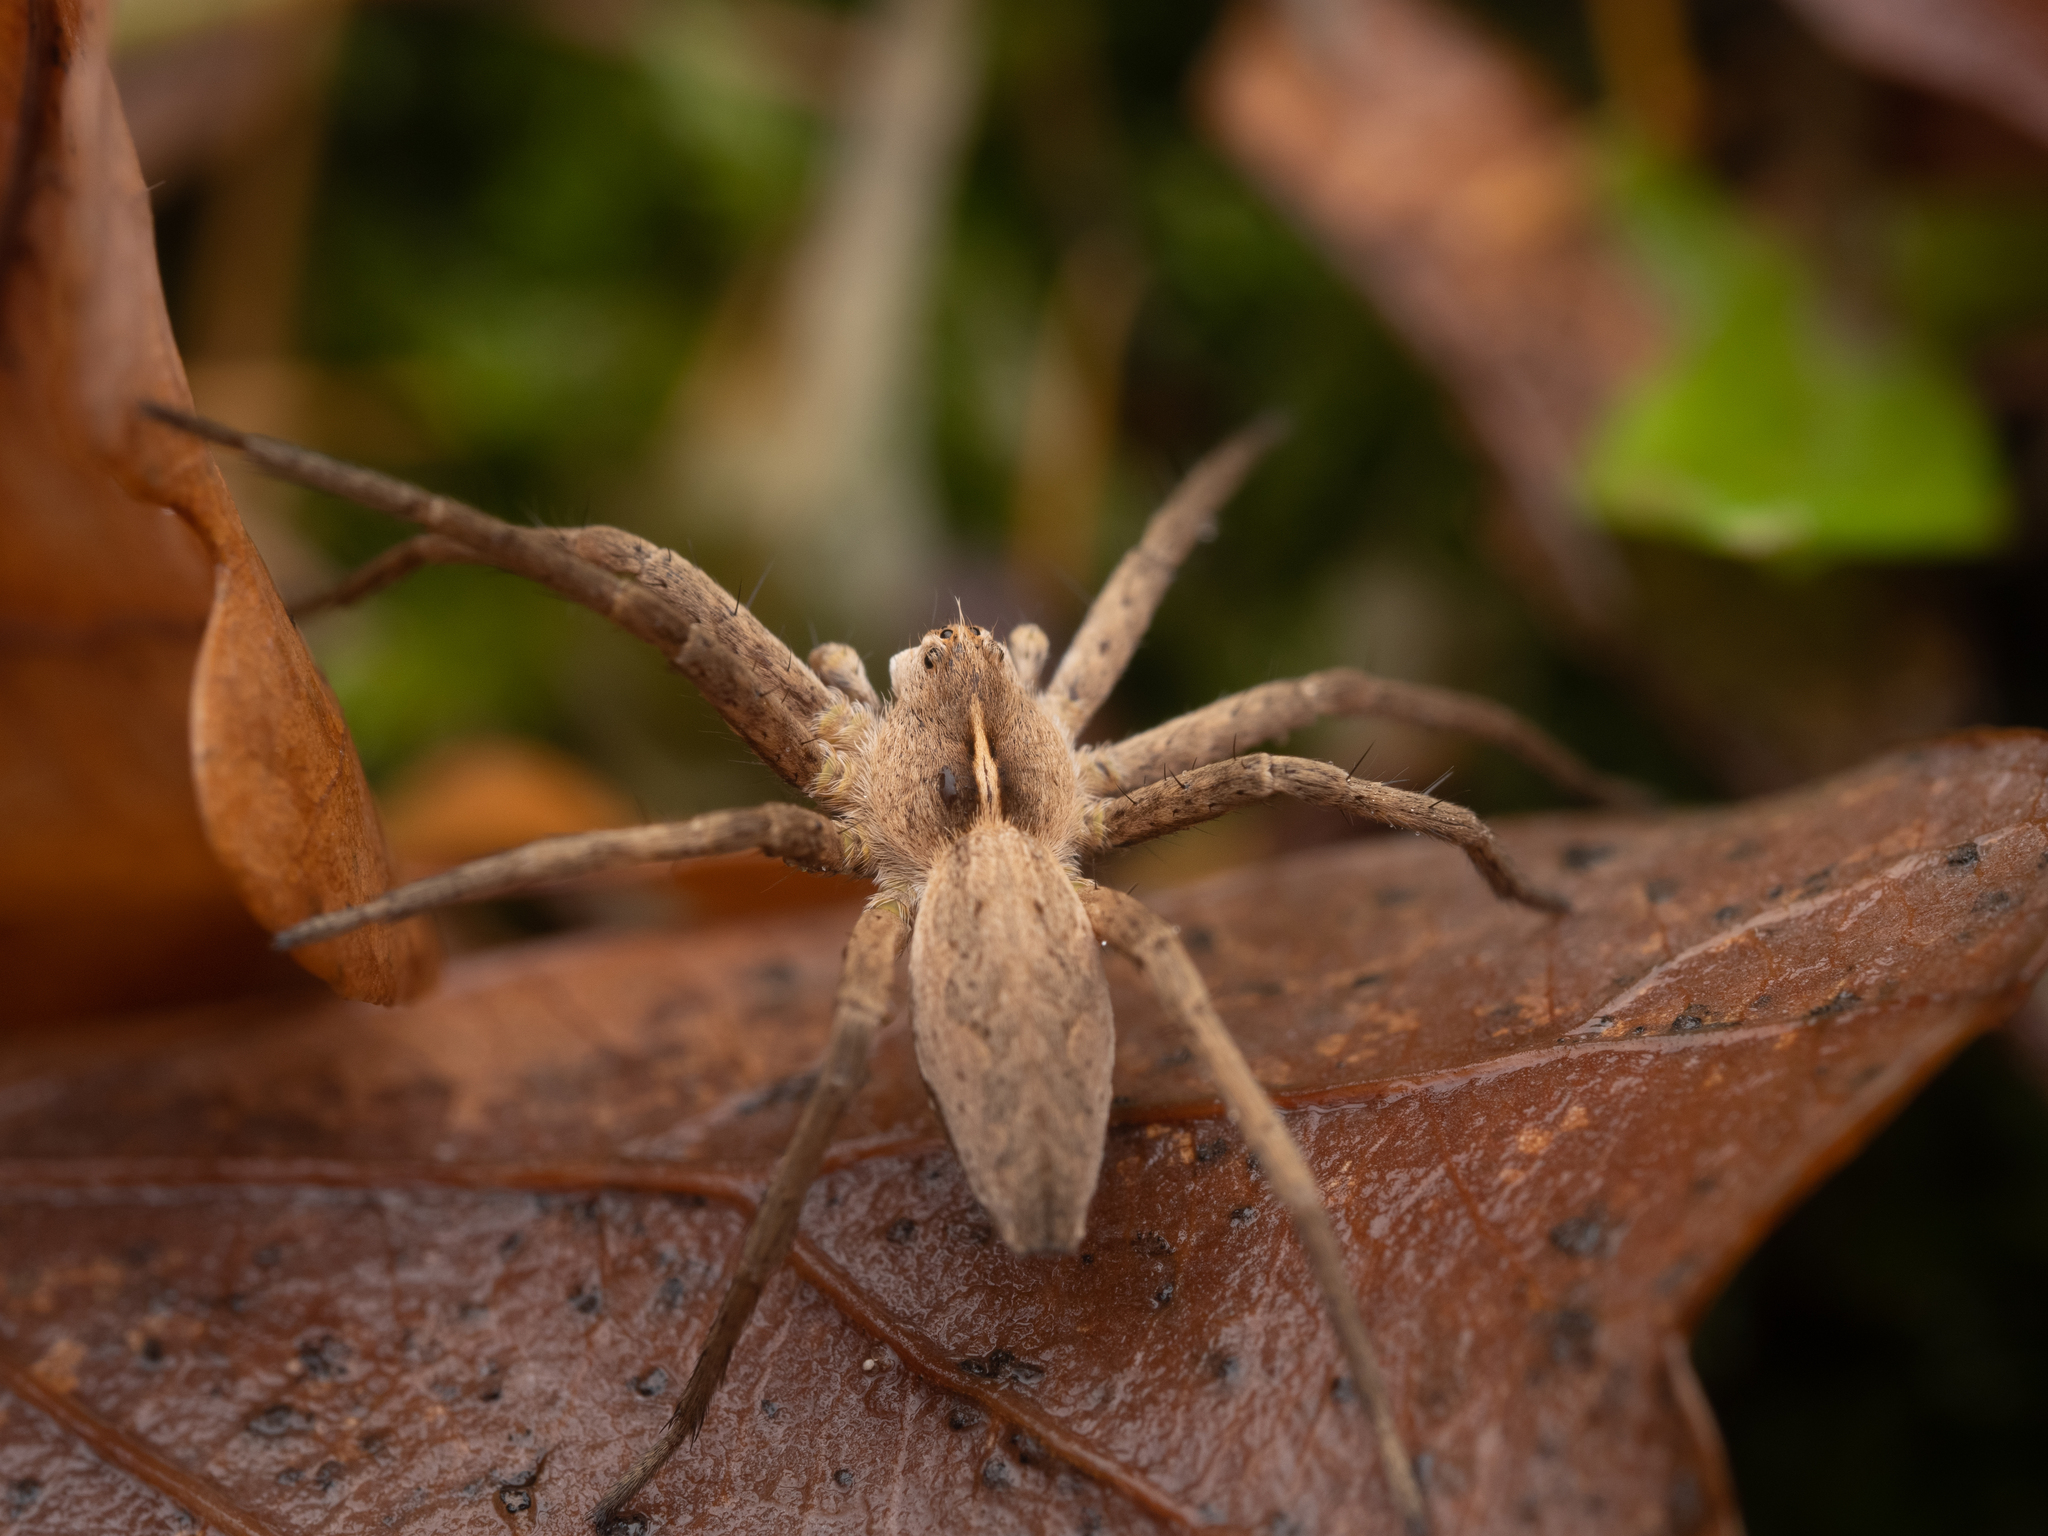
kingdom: Animalia
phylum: Arthropoda
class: Arachnida
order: Araneae
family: Pisauridae
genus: Pisaura
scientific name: Pisaura mirabilis
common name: Tent spider
